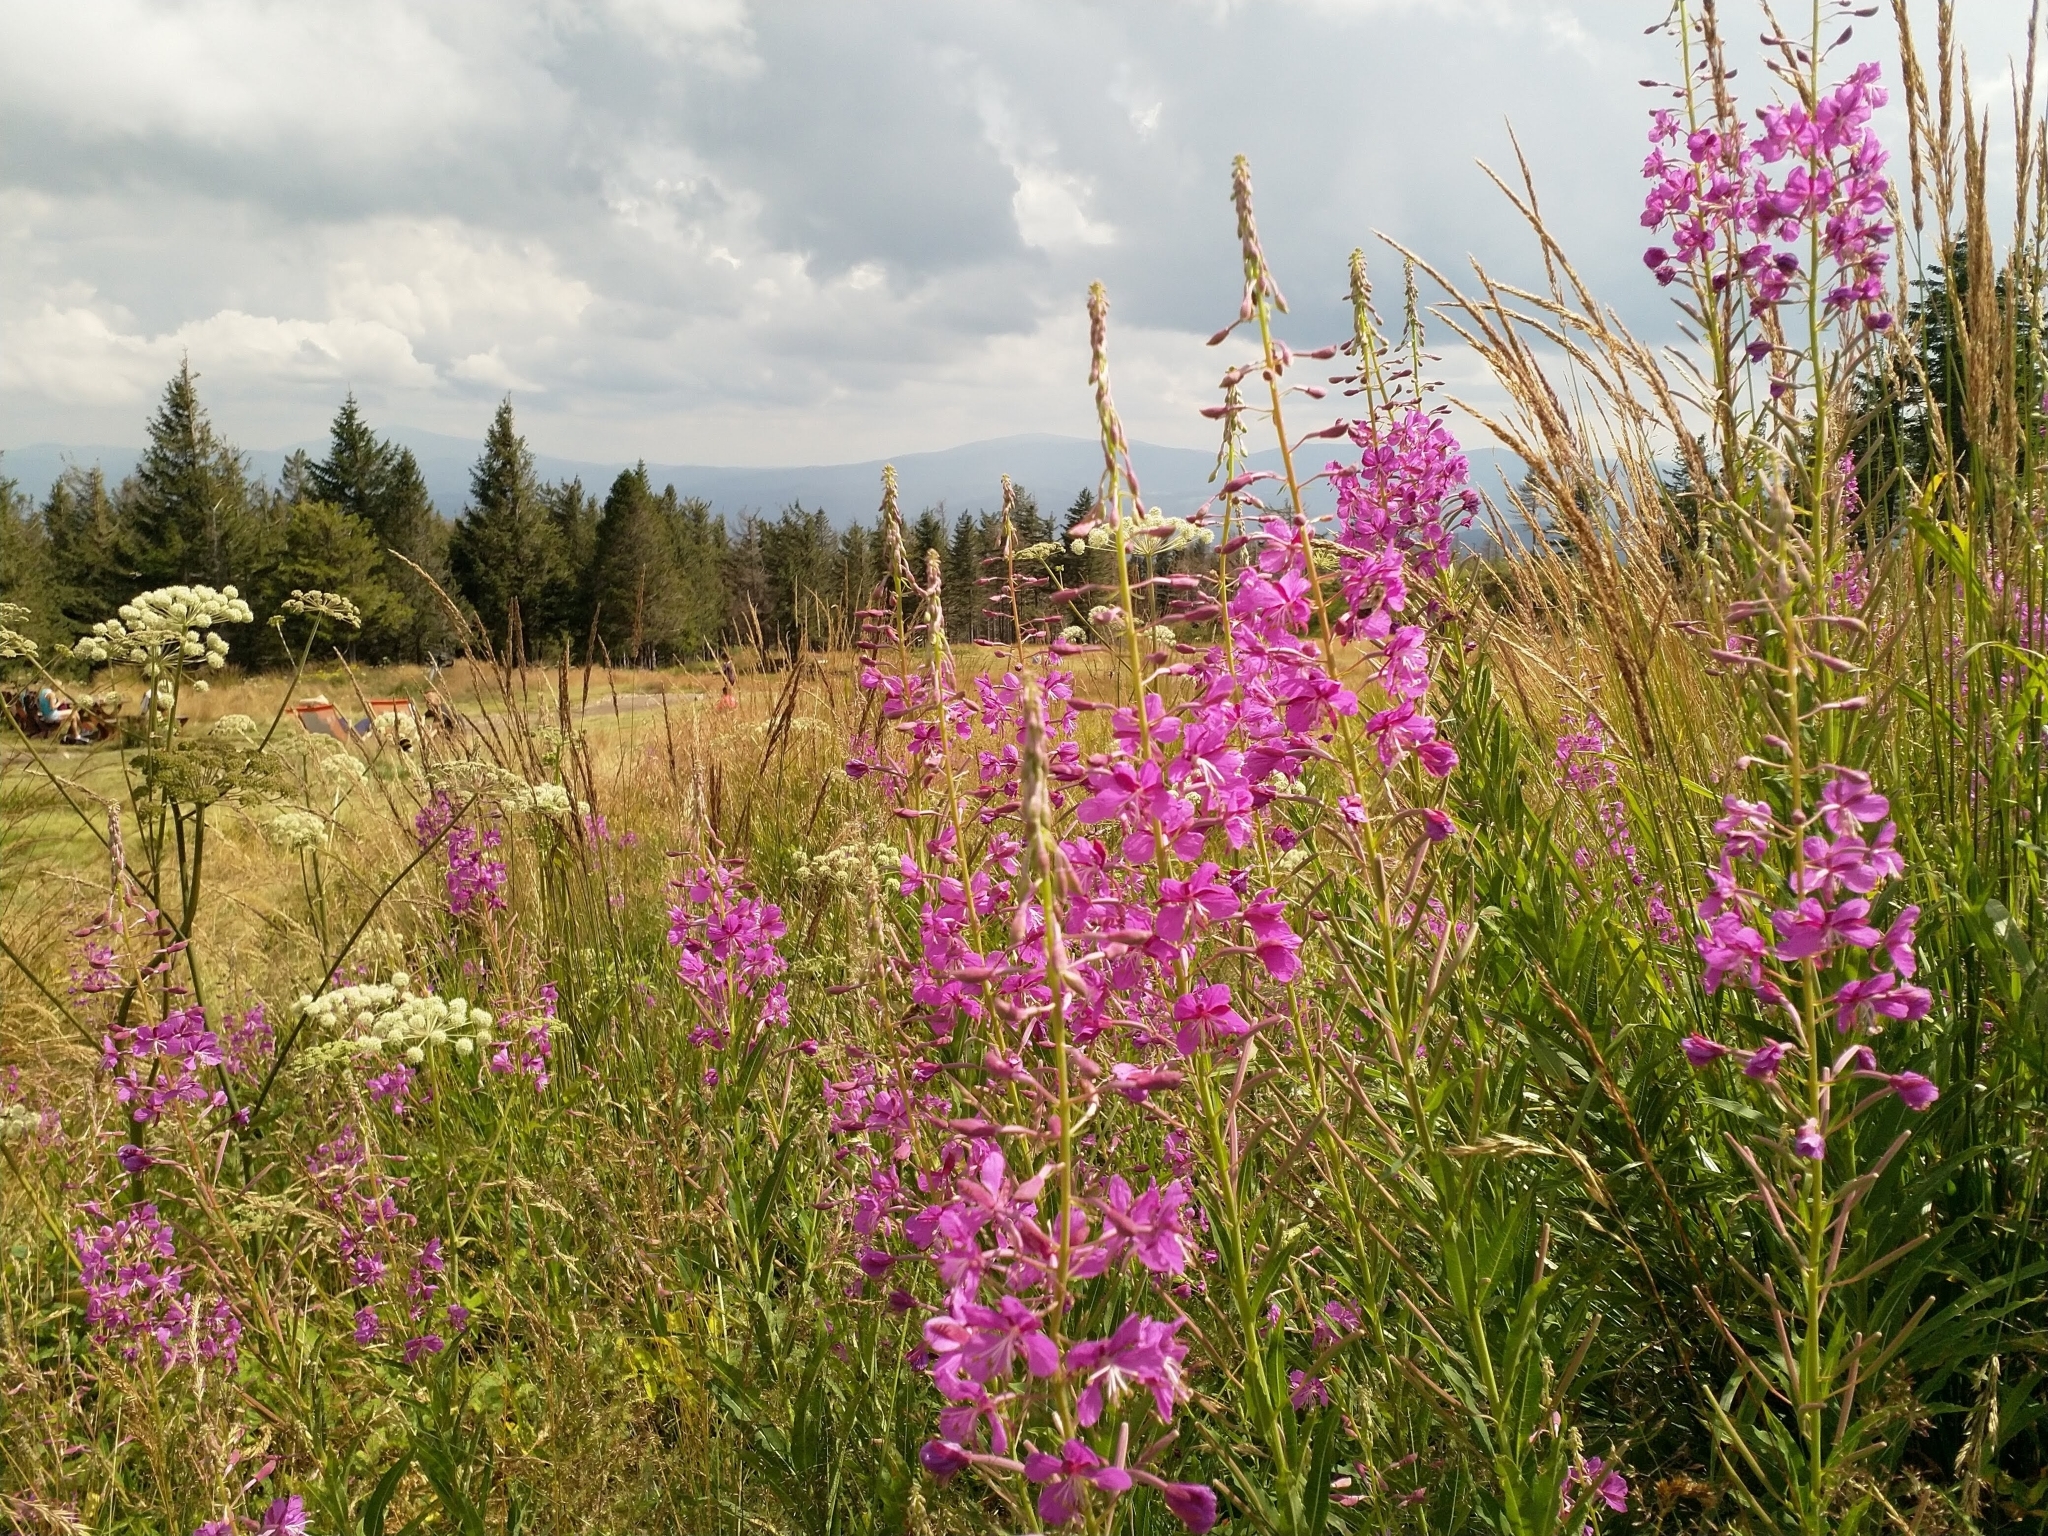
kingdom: Plantae
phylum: Tracheophyta
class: Magnoliopsida
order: Myrtales
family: Onagraceae
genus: Chamaenerion
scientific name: Chamaenerion angustifolium
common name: Fireweed
